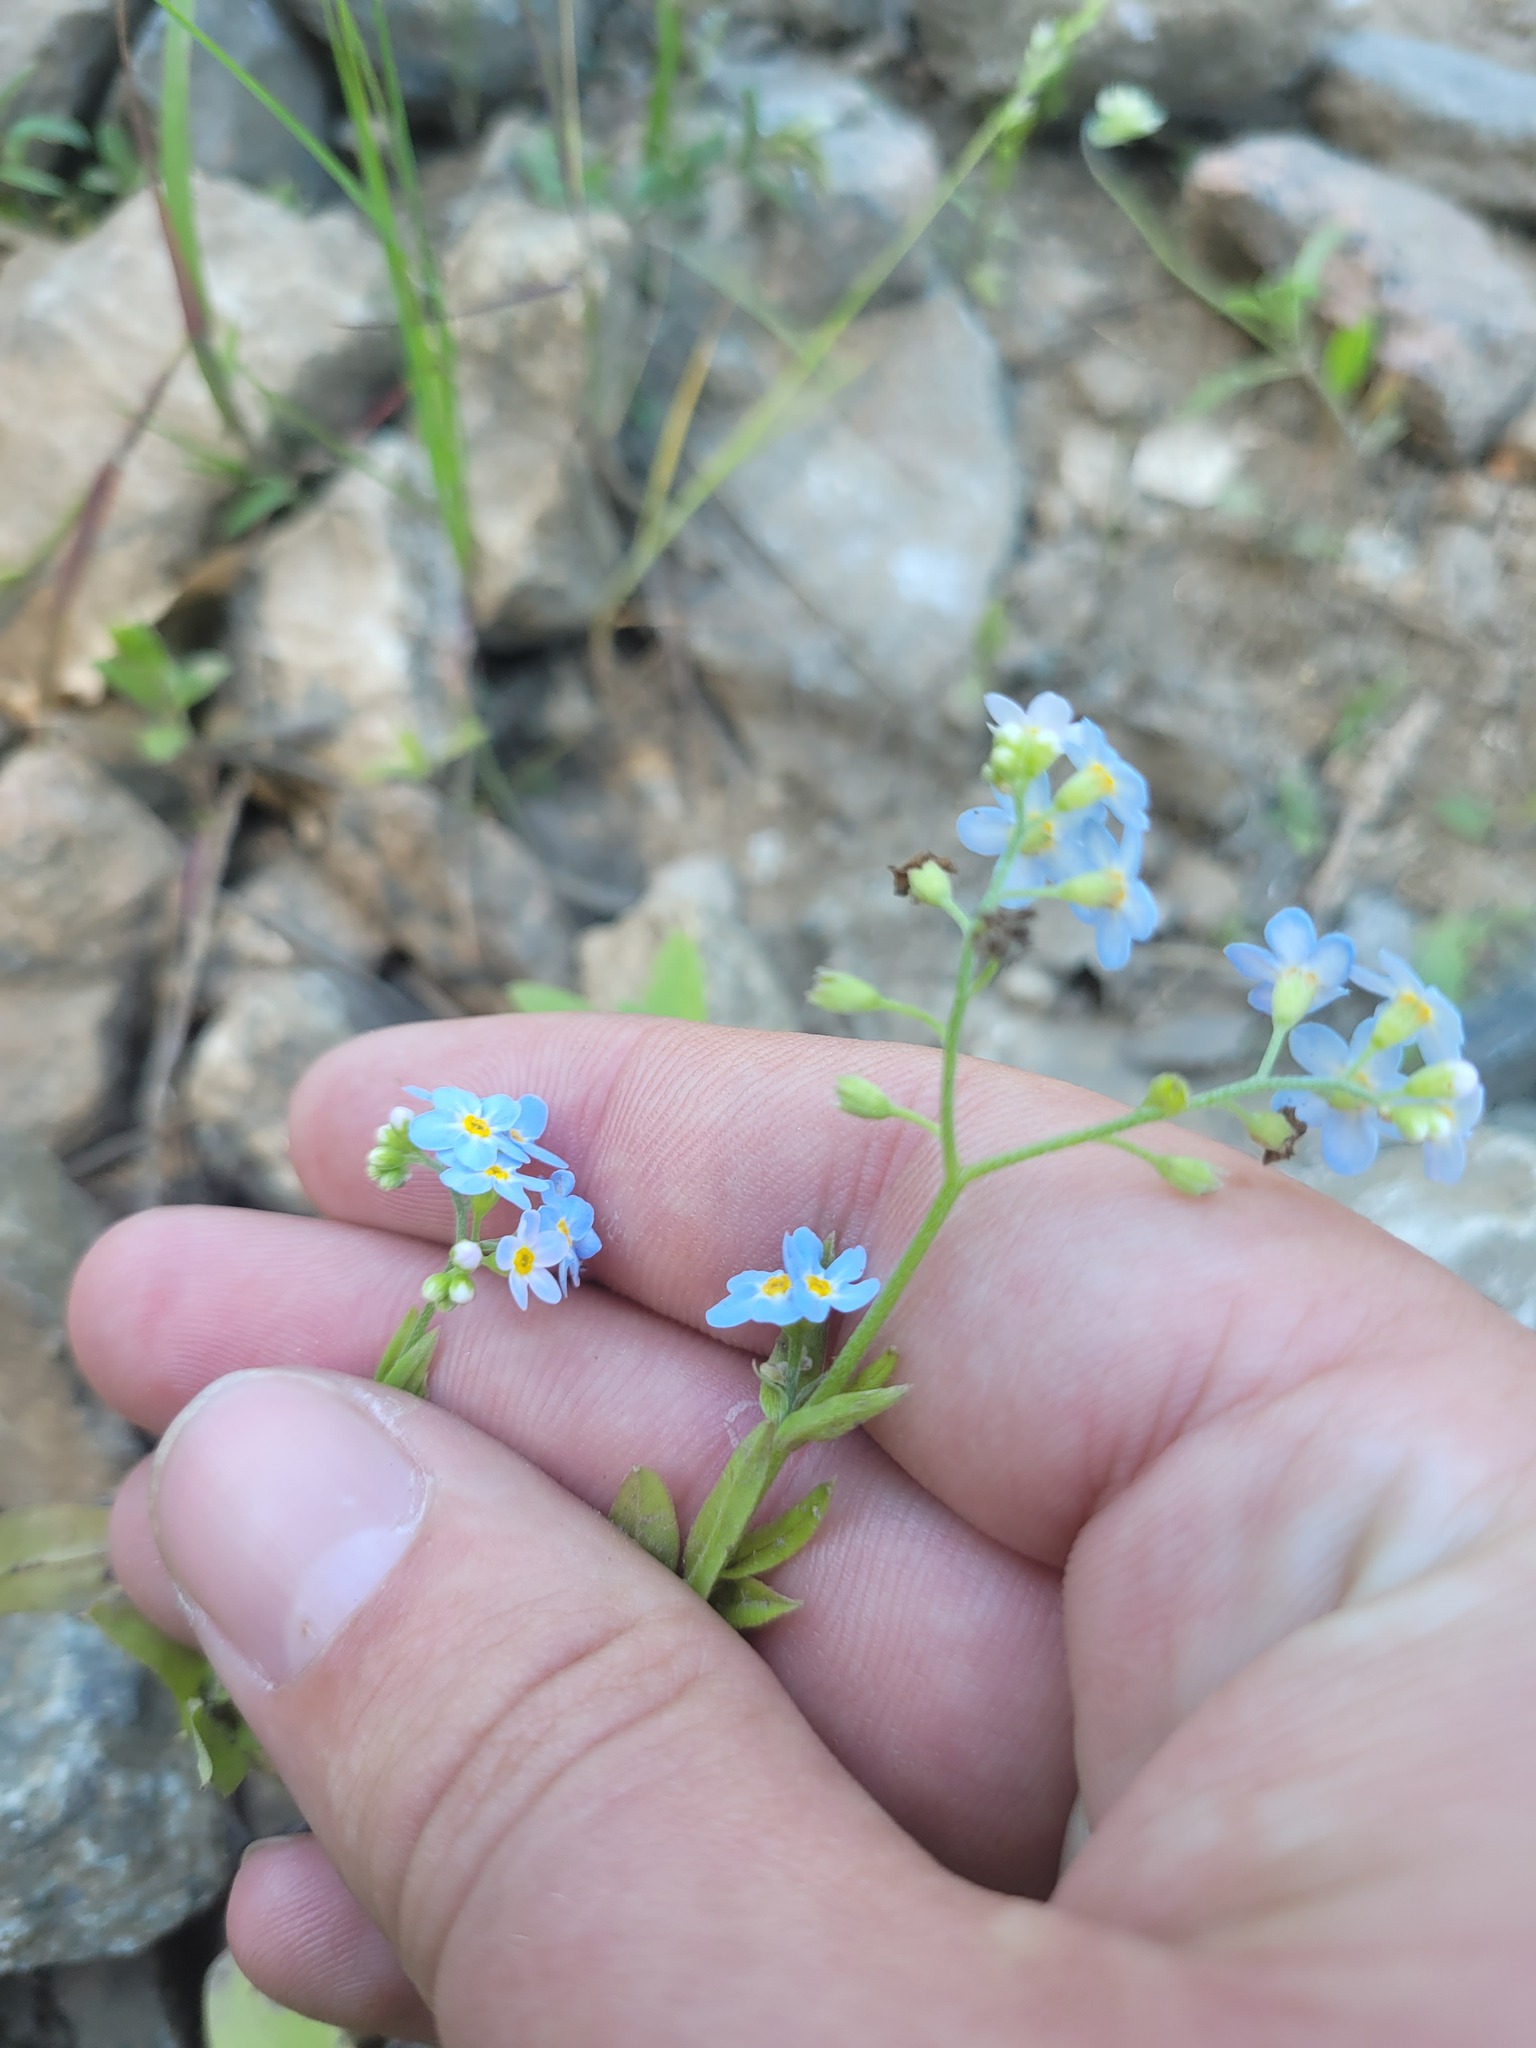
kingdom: Plantae
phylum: Tracheophyta
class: Magnoliopsida
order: Boraginales
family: Boraginaceae
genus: Myosotis
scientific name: Myosotis scorpioides
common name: Water forget-me-not
